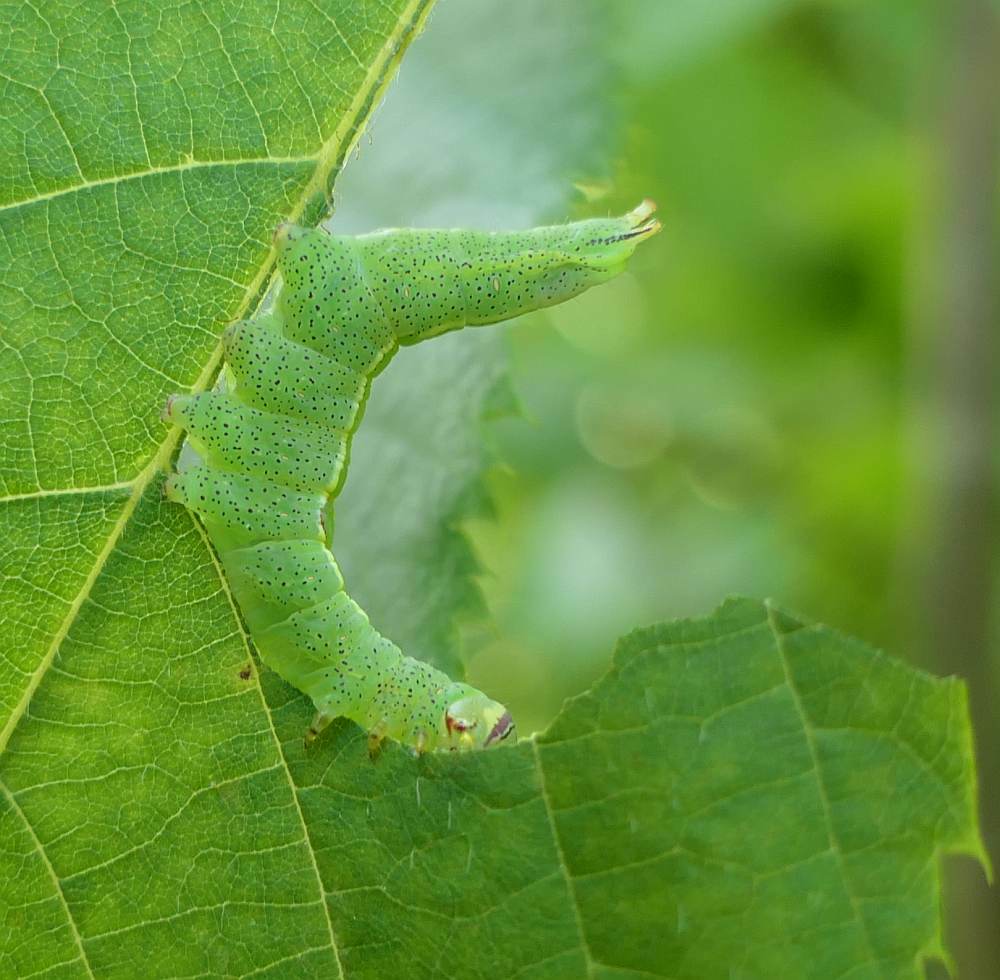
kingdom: Animalia
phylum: Arthropoda
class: Insecta
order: Lepidoptera
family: Notodontidae
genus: Disphragis
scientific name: Disphragis Cecrita guttivitta
